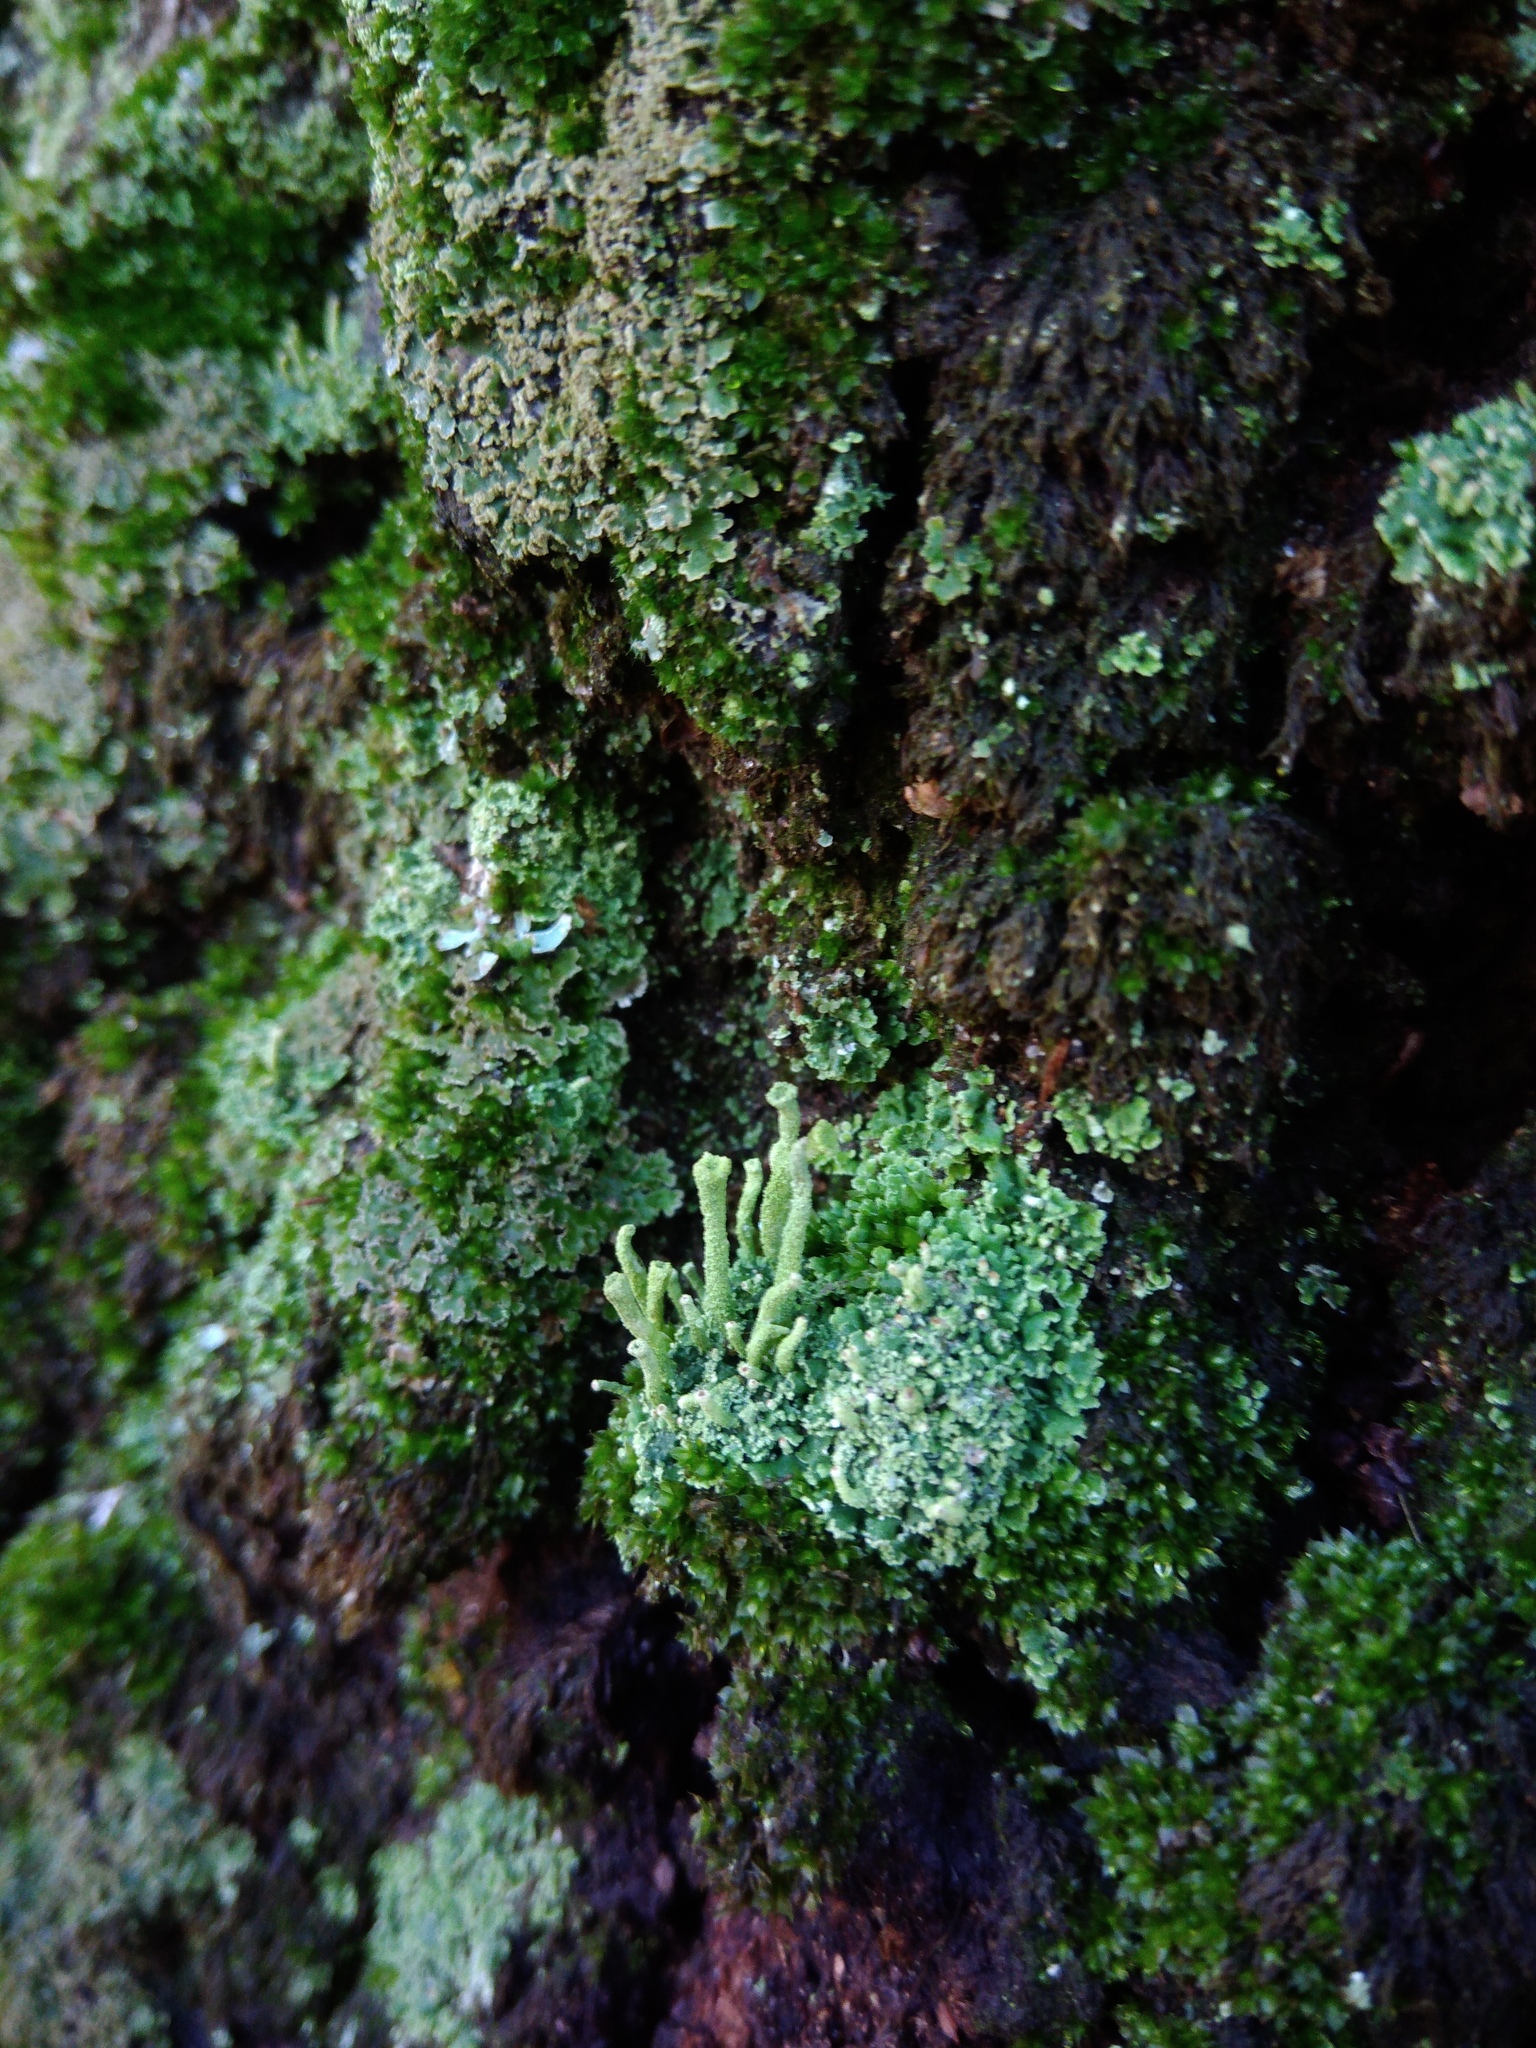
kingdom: Fungi
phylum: Ascomycota
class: Lecanoromycetes
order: Lecanorales
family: Cladoniaceae
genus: Cladonia
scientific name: Cladonia coniocraea
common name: Common powderhorn
